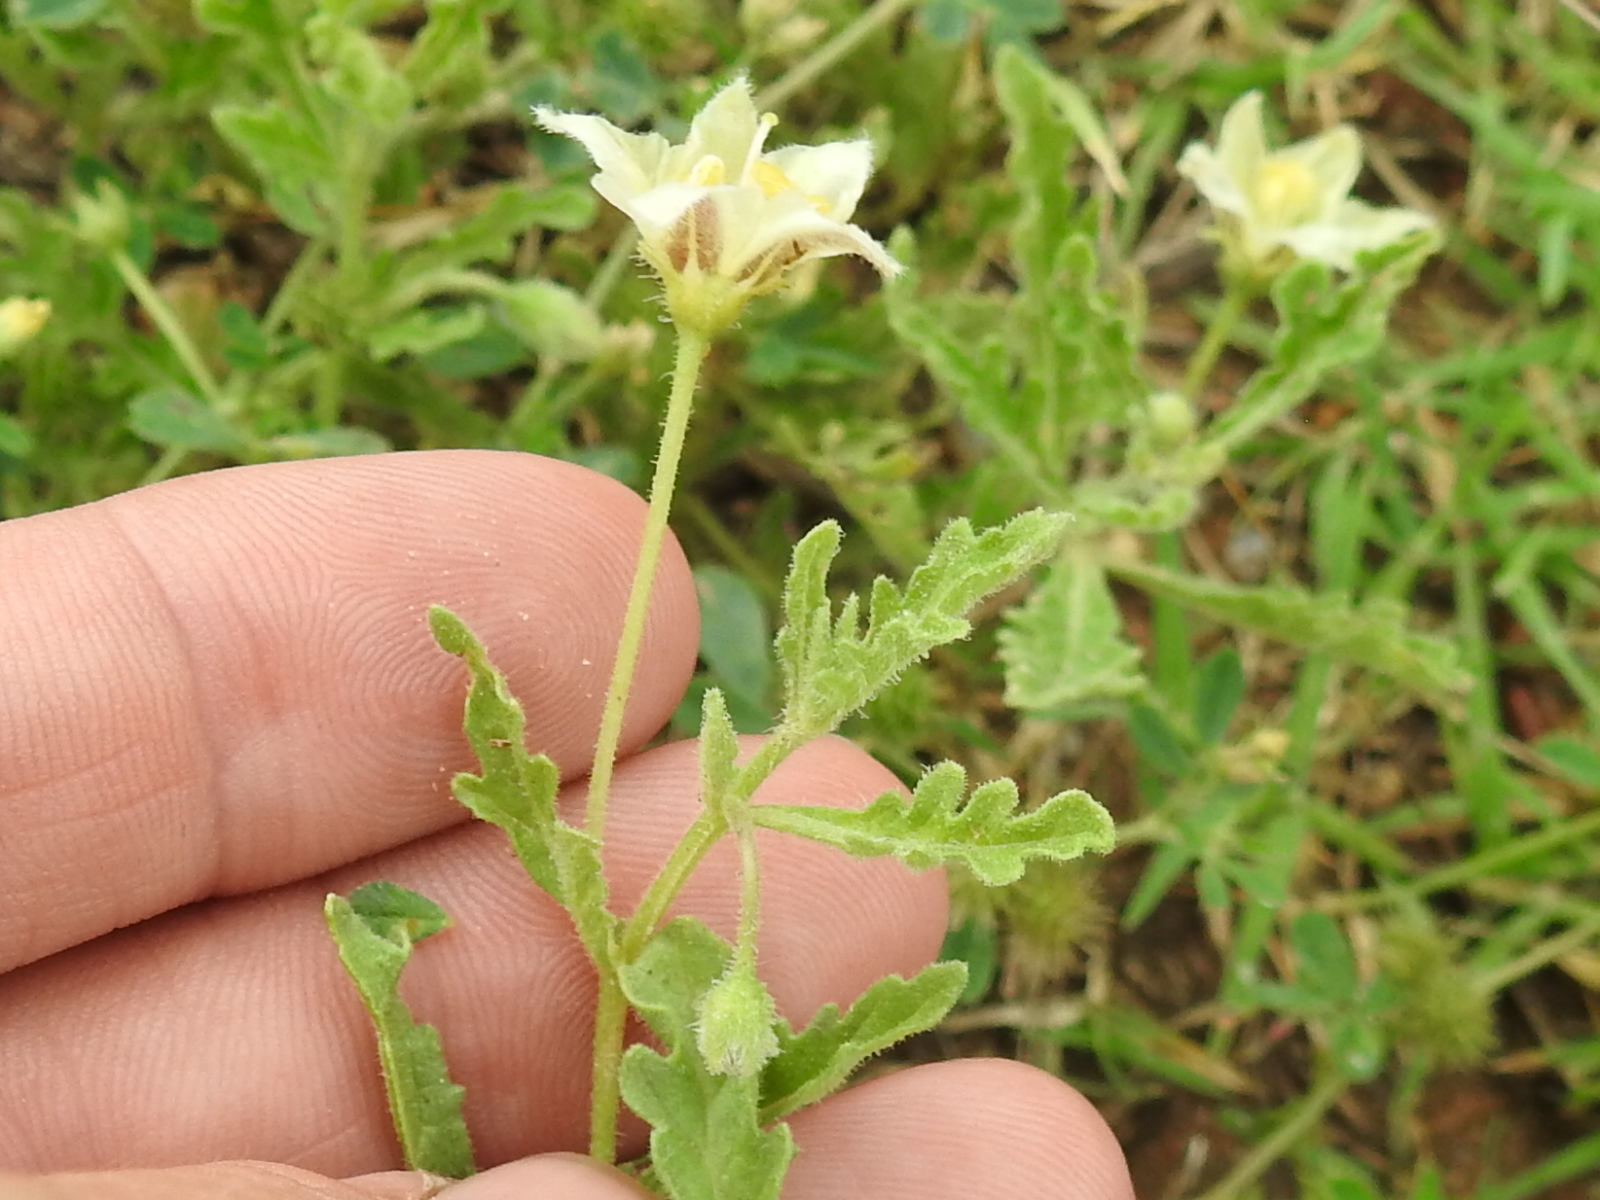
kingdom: Plantae
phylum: Tracheophyta
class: Magnoliopsida
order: Solanales
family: Solanaceae
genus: Chamaesaracha
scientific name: Chamaesaracha coniodes
